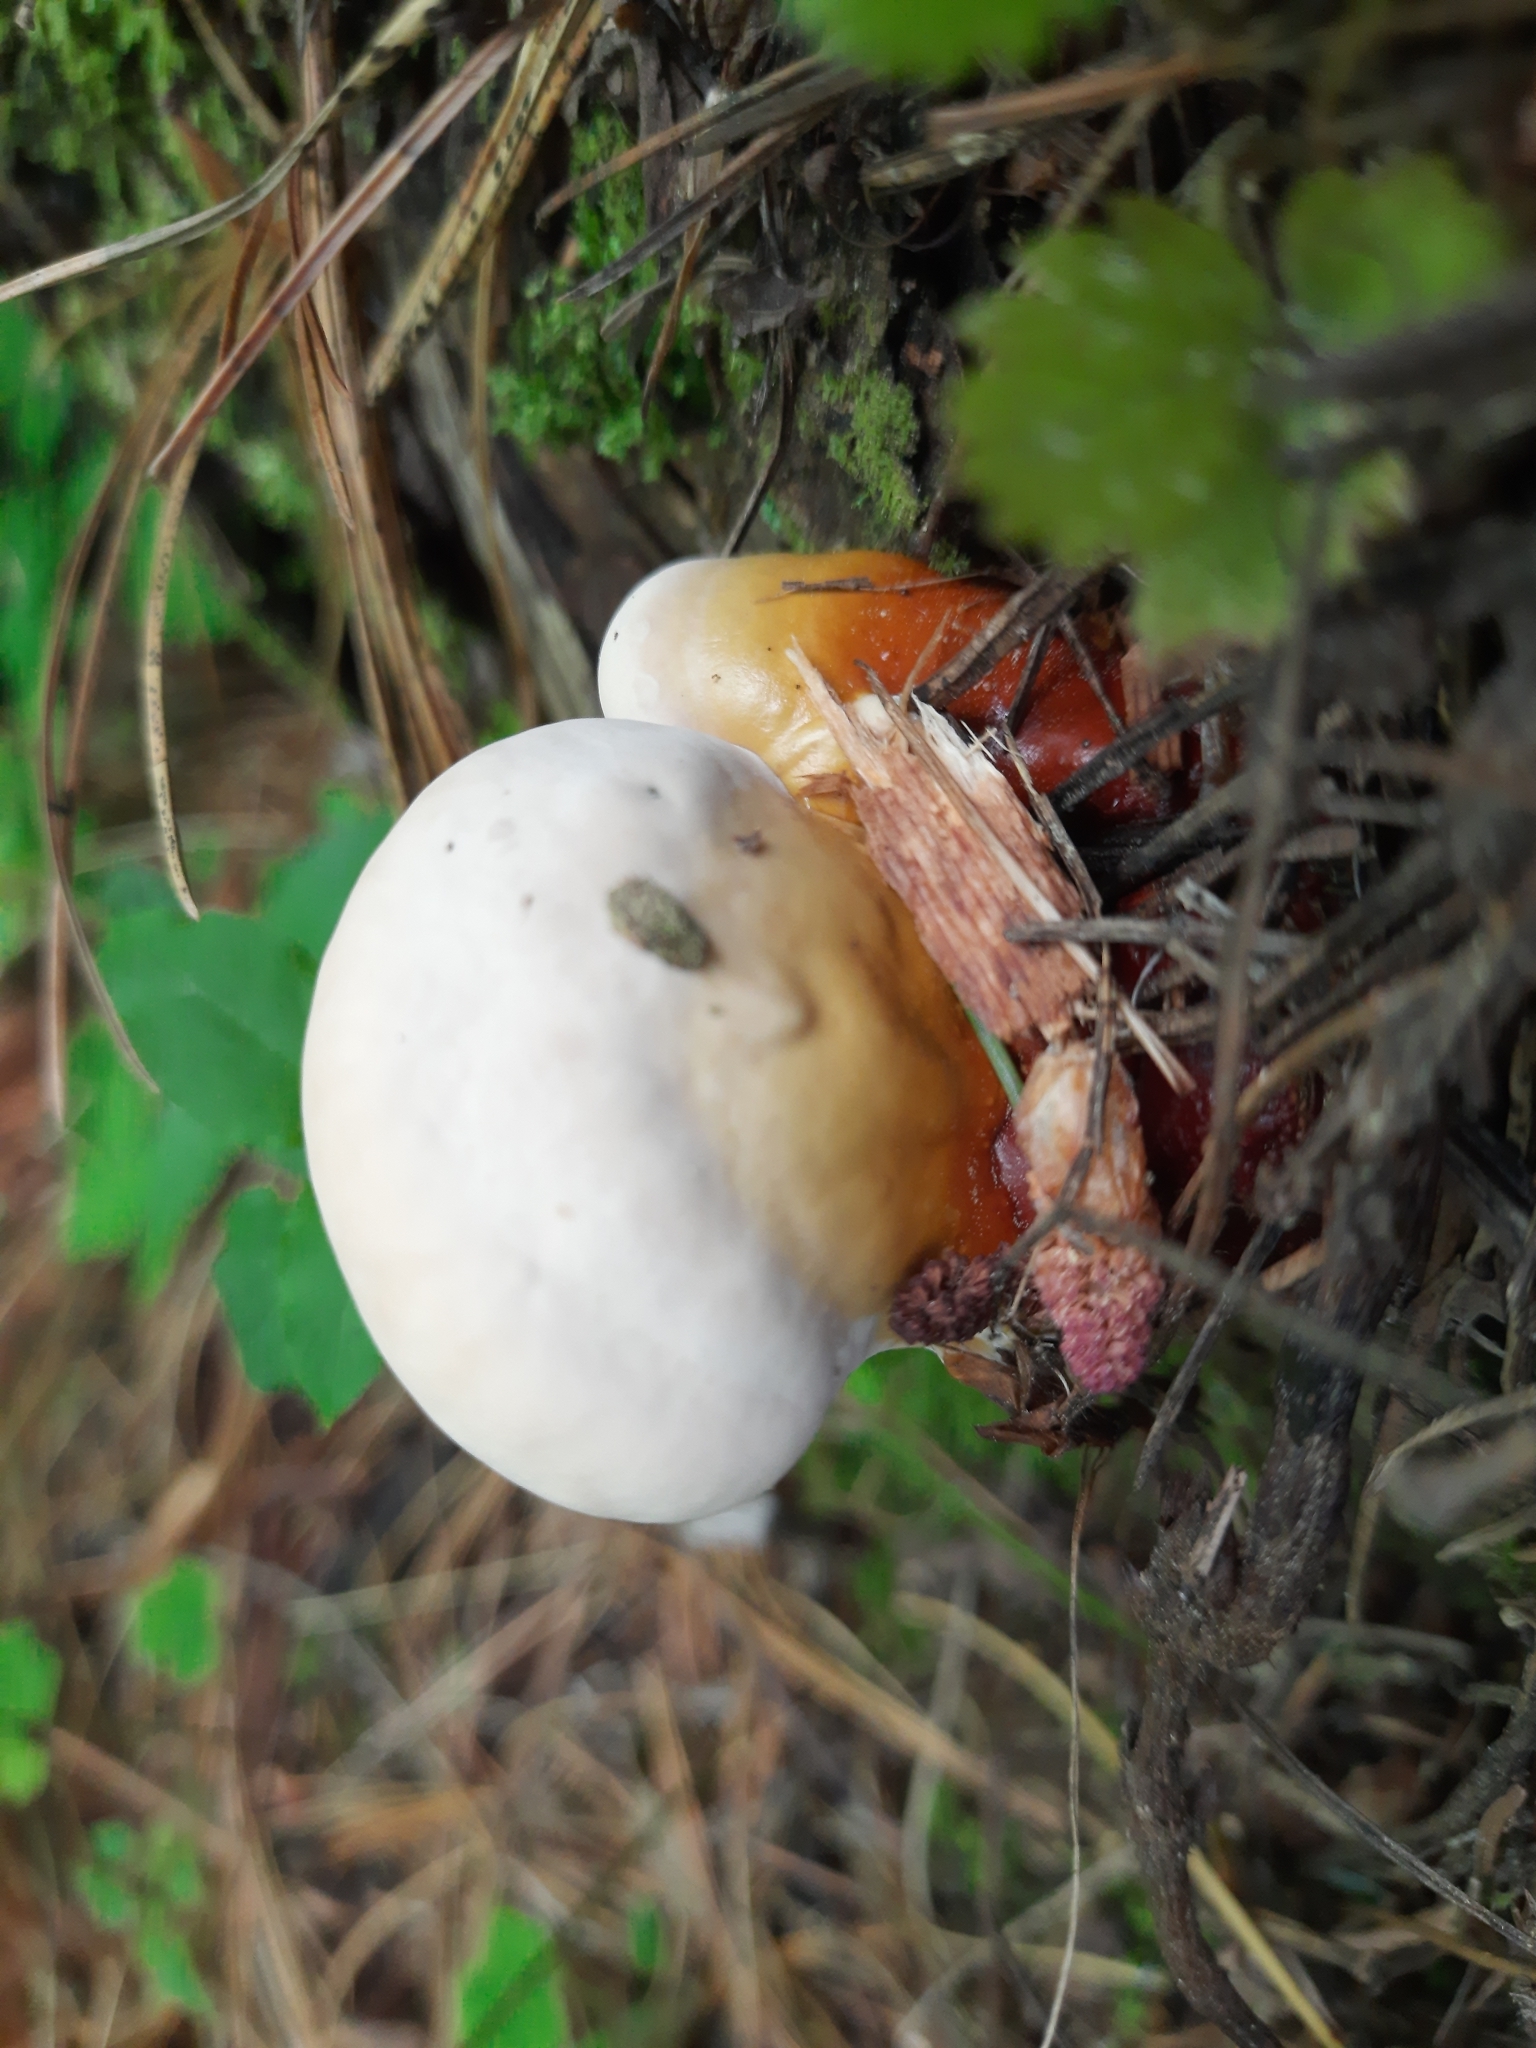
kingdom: Fungi
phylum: Basidiomycota
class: Agaricomycetes
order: Polyporales
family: Polyporaceae
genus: Ganoderma
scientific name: Ganoderma lucidum
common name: Lacquered bracket
